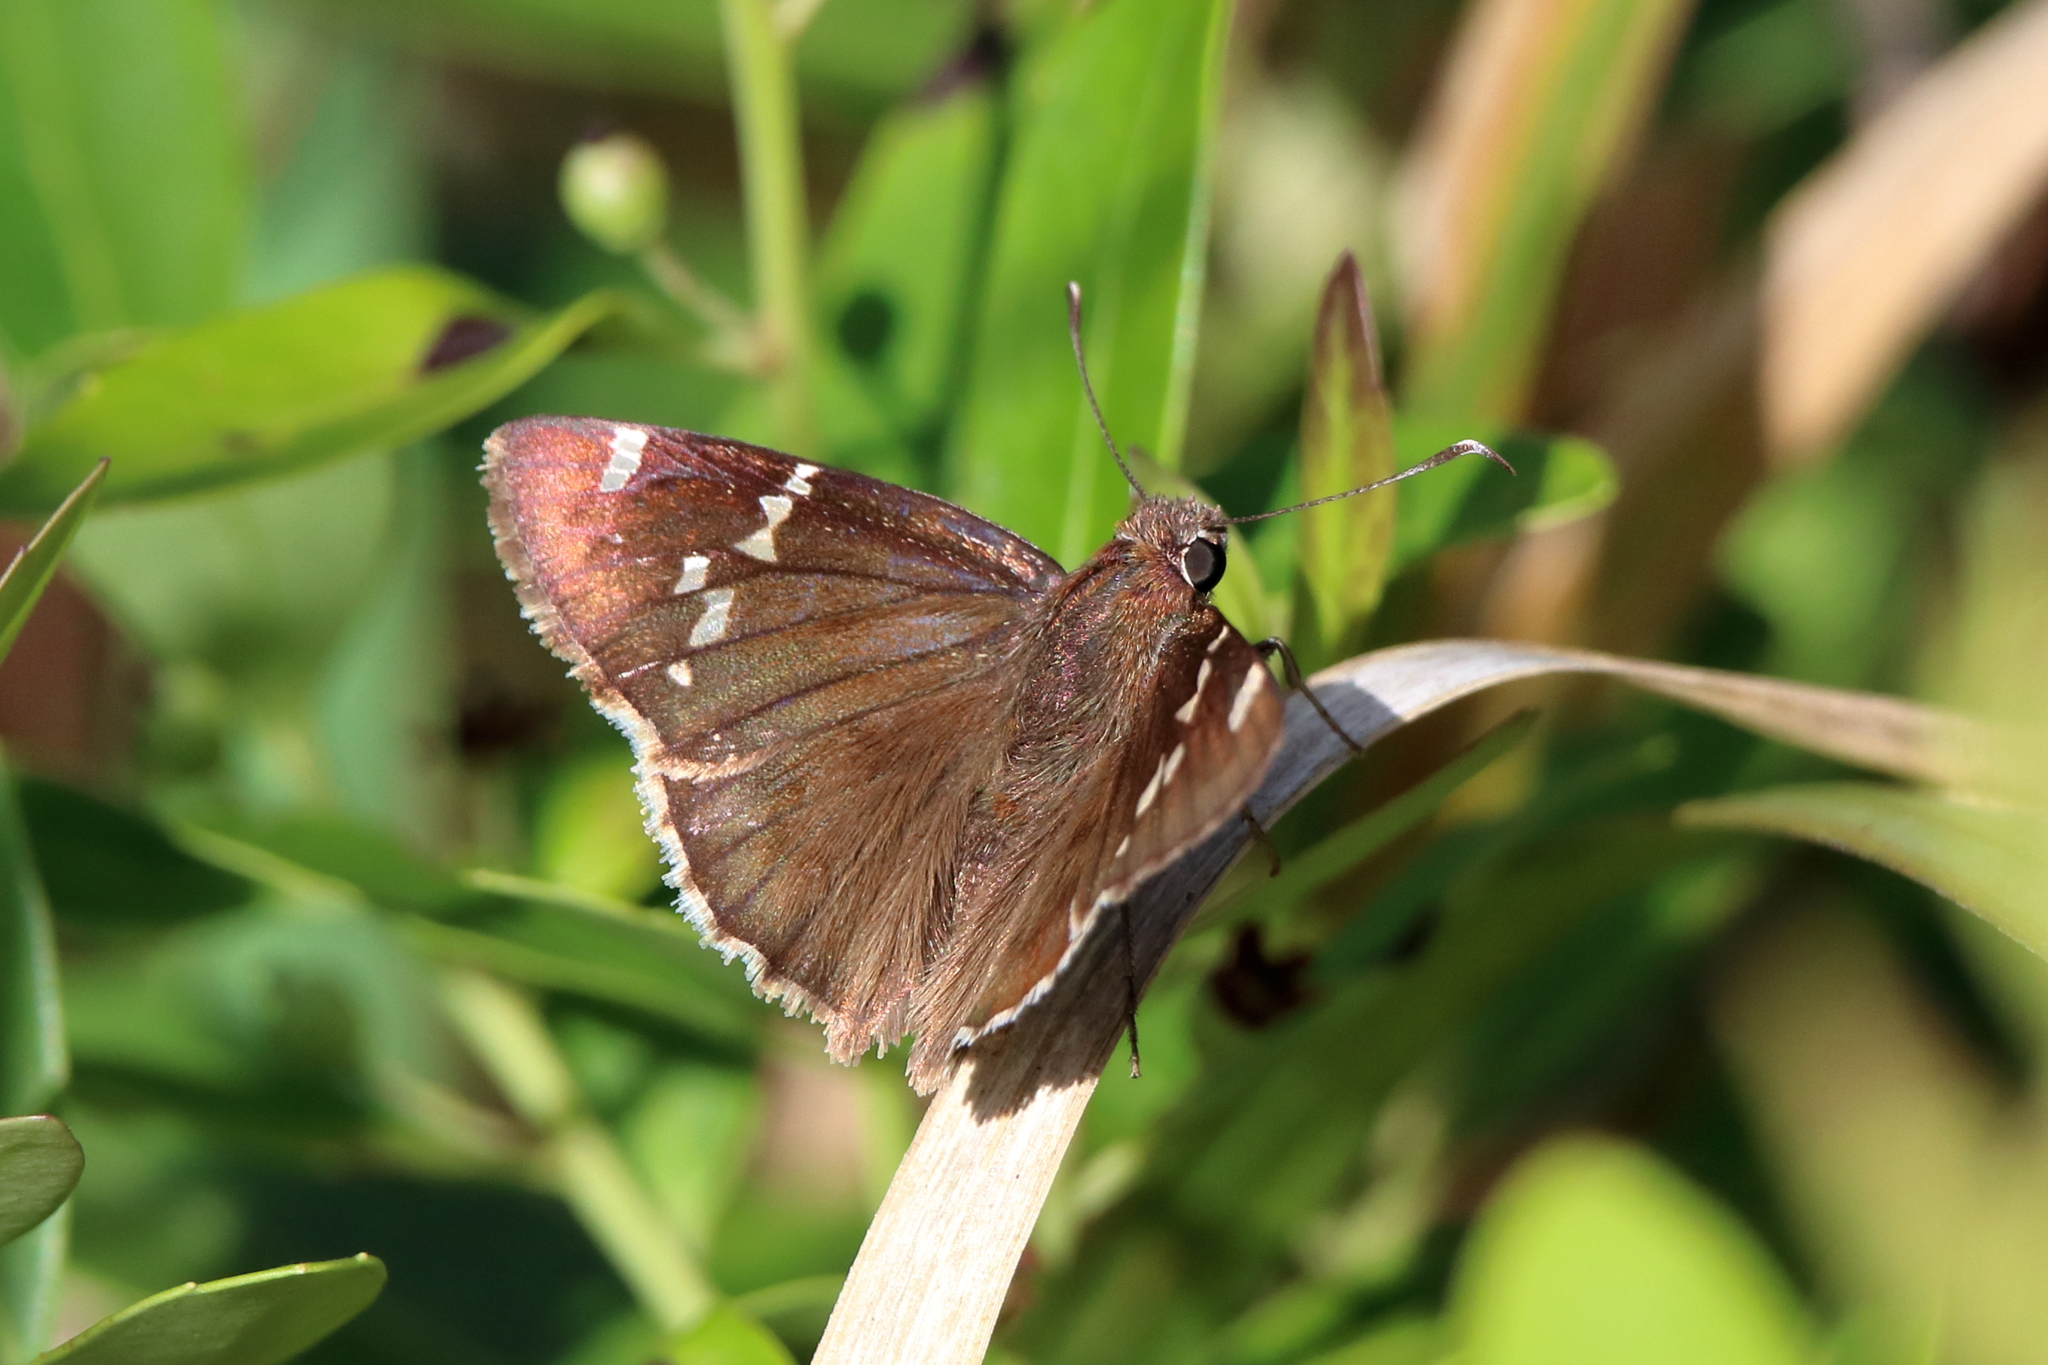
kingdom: Animalia
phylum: Arthropoda
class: Insecta
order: Lepidoptera
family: Hesperiidae
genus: Thorybes
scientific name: Thorybes daunus
